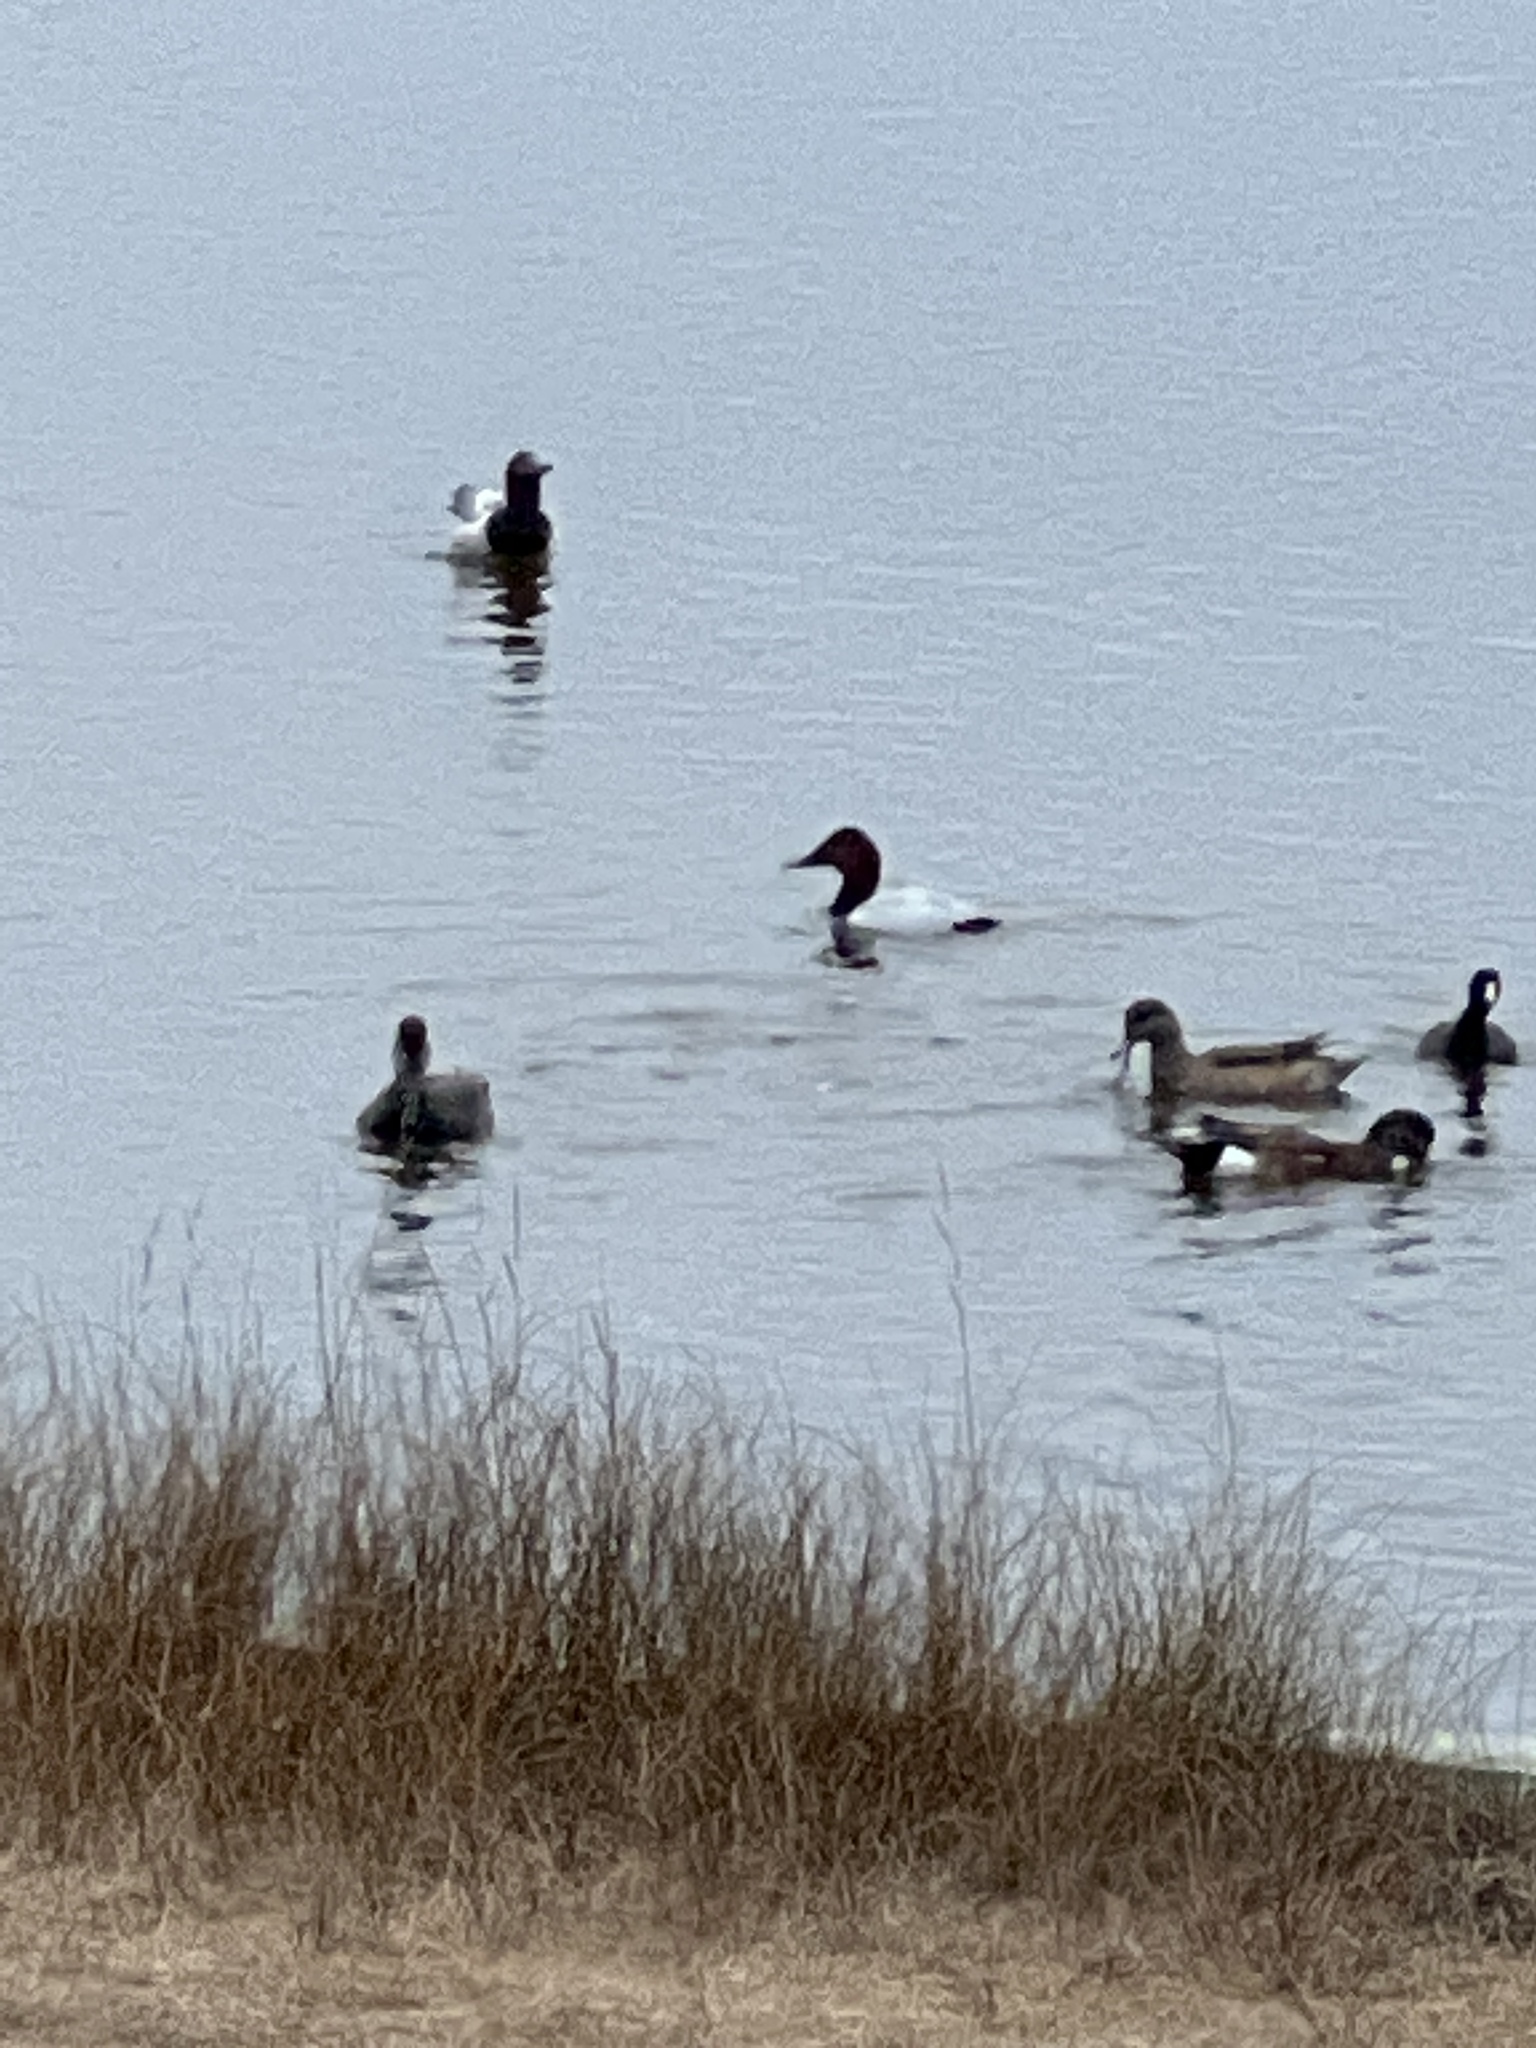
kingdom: Animalia
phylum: Chordata
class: Aves
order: Anseriformes
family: Anatidae
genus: Aythya
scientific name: Aythya valisineria
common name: Canvasback
